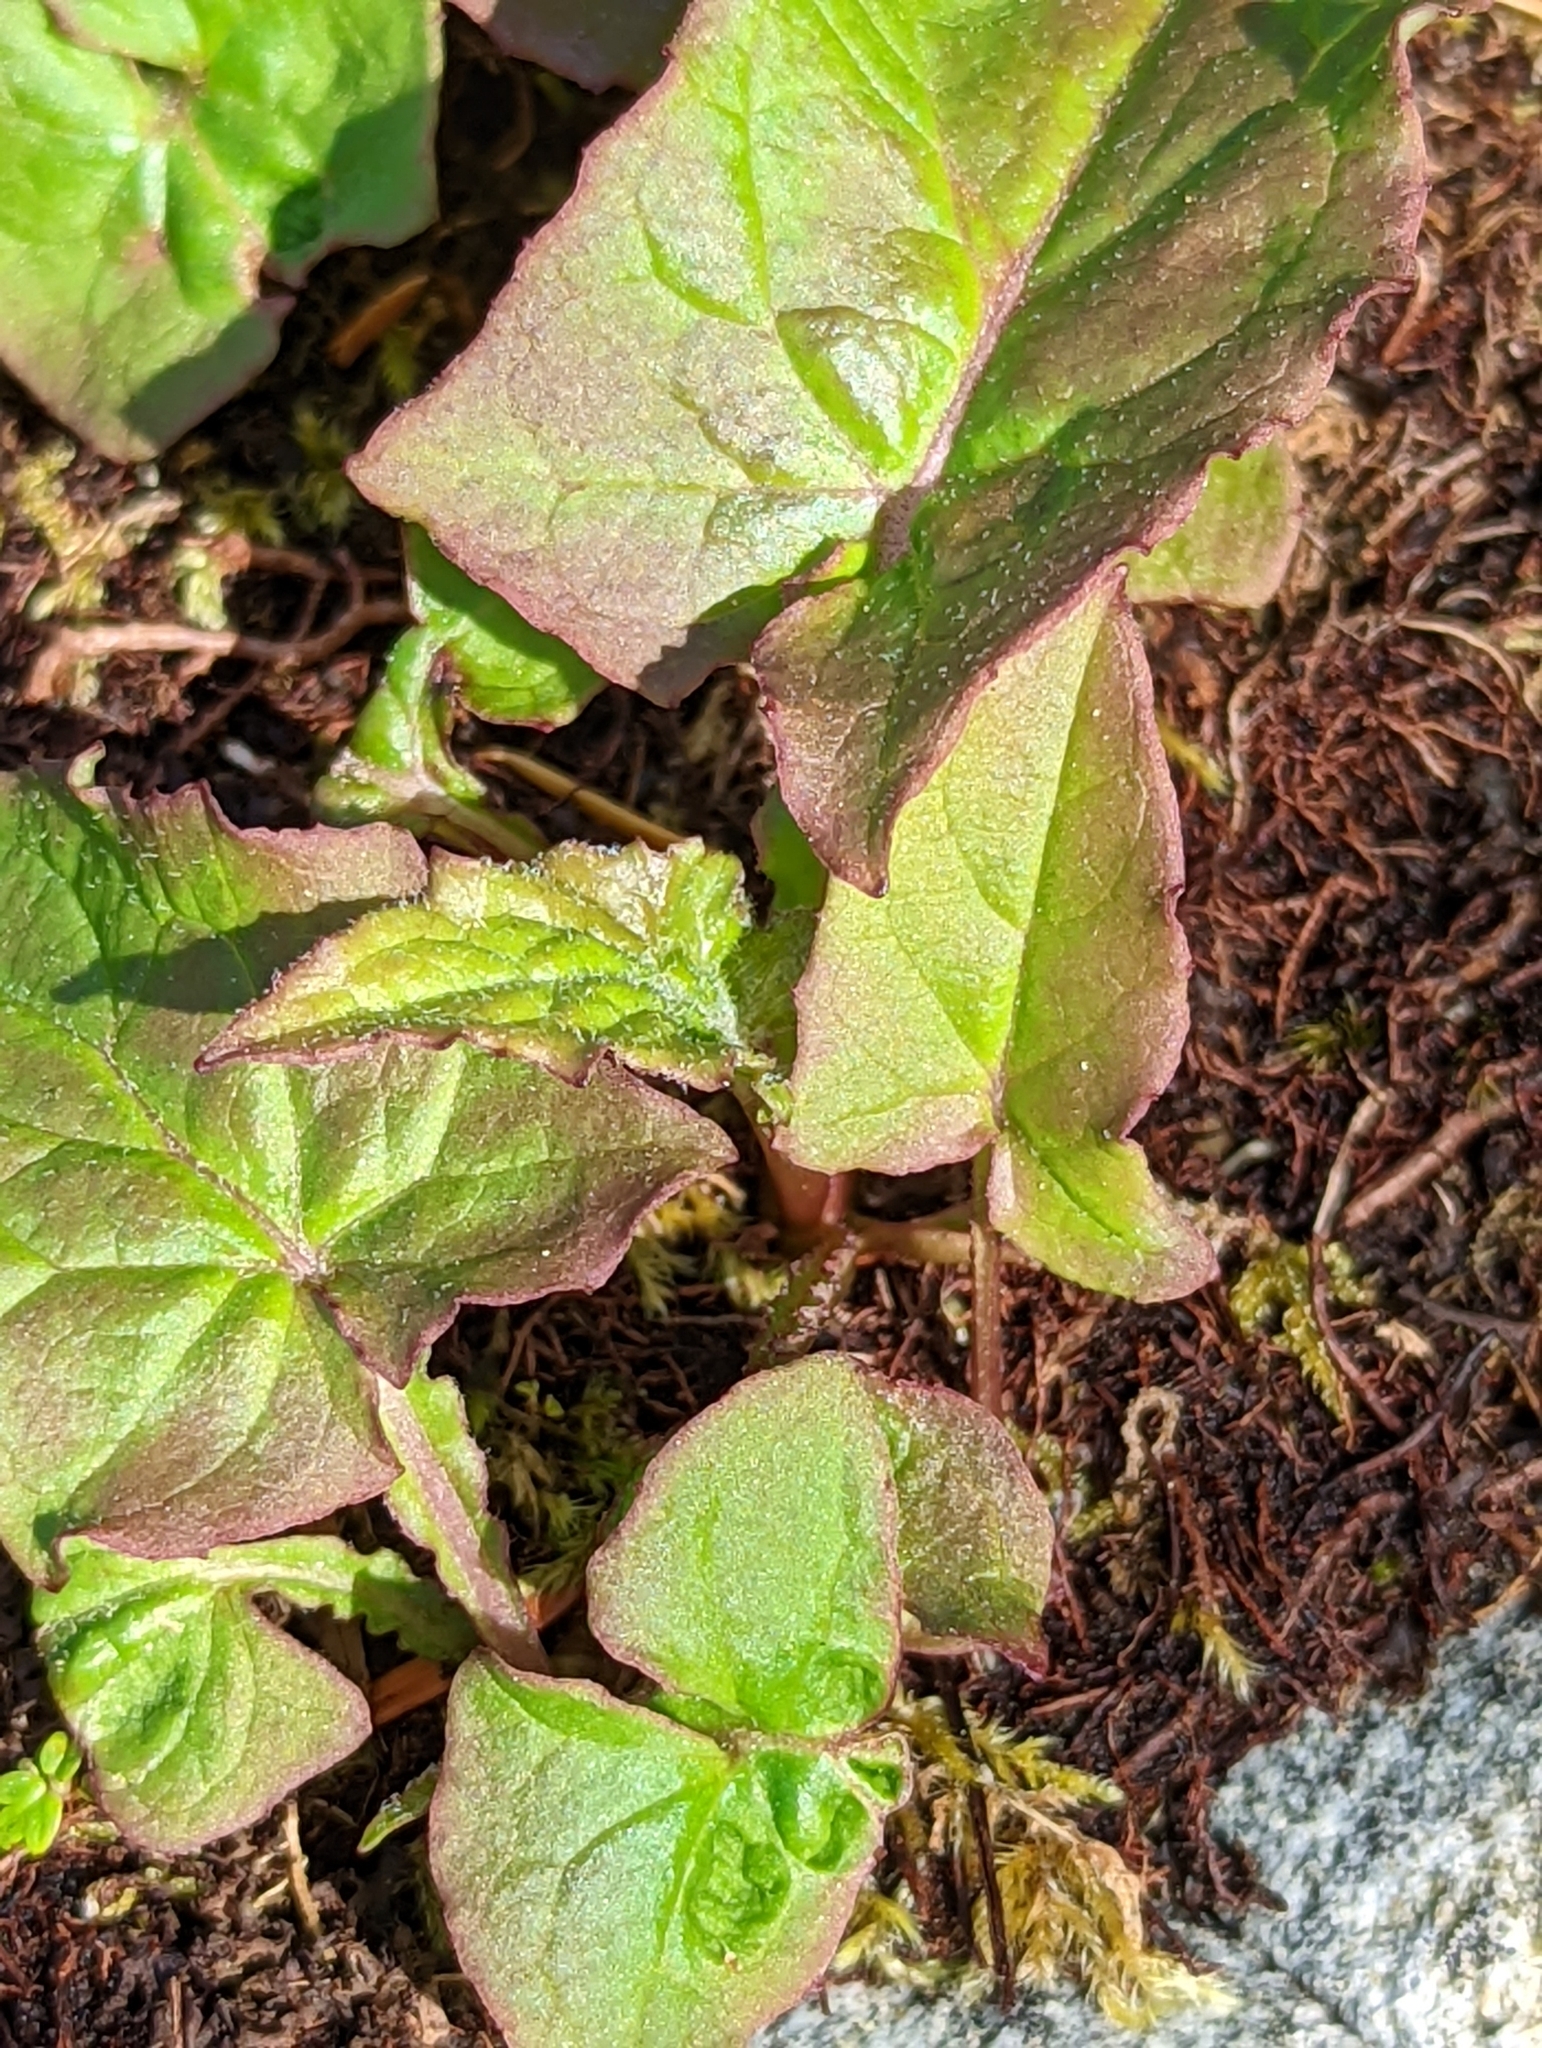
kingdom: Plantae
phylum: Tracheophyta
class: Magnoliopsida
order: Asterales
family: Asteraceae
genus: Nabalus
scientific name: Nabalus hastatus
